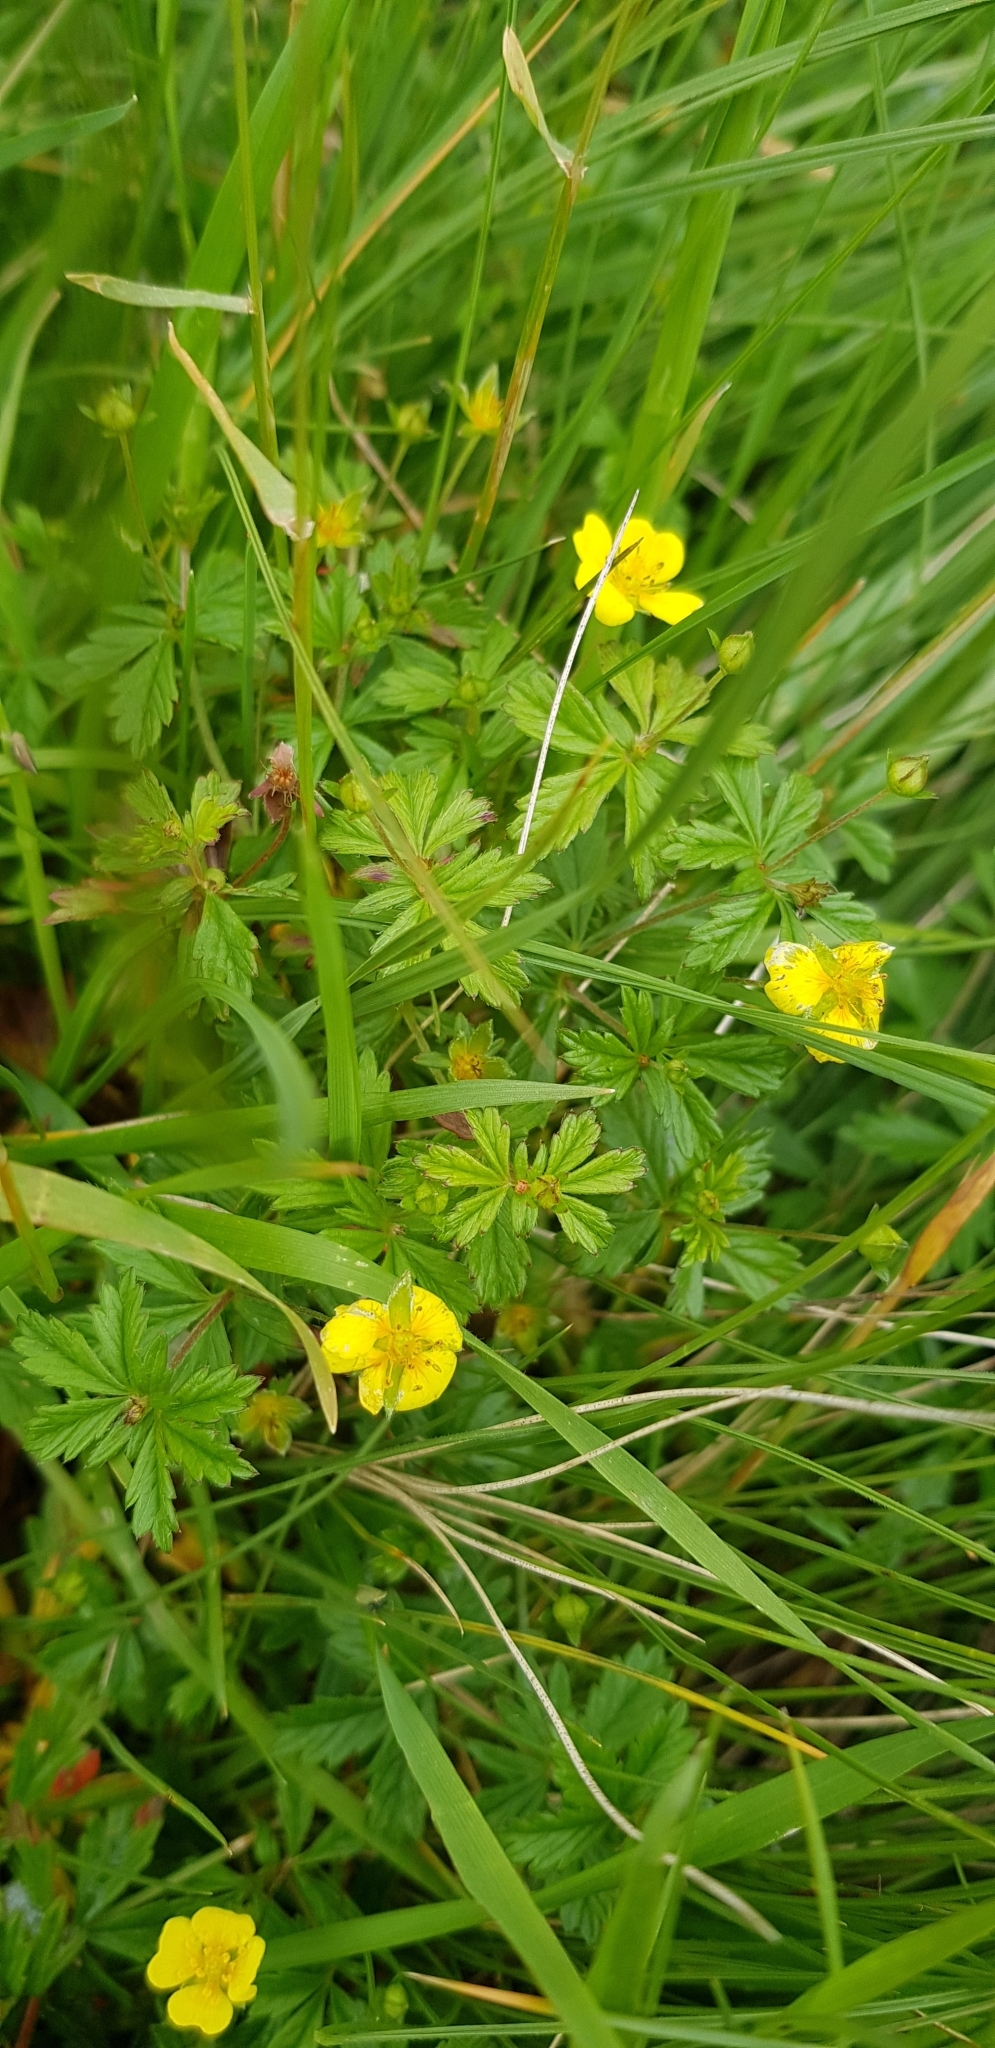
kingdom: Plantae
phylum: Tracheophyta
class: Magnoliopsida
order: Rosales
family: Rosaceae
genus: Potentilla
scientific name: Potentilla erecta
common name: Tormentil
